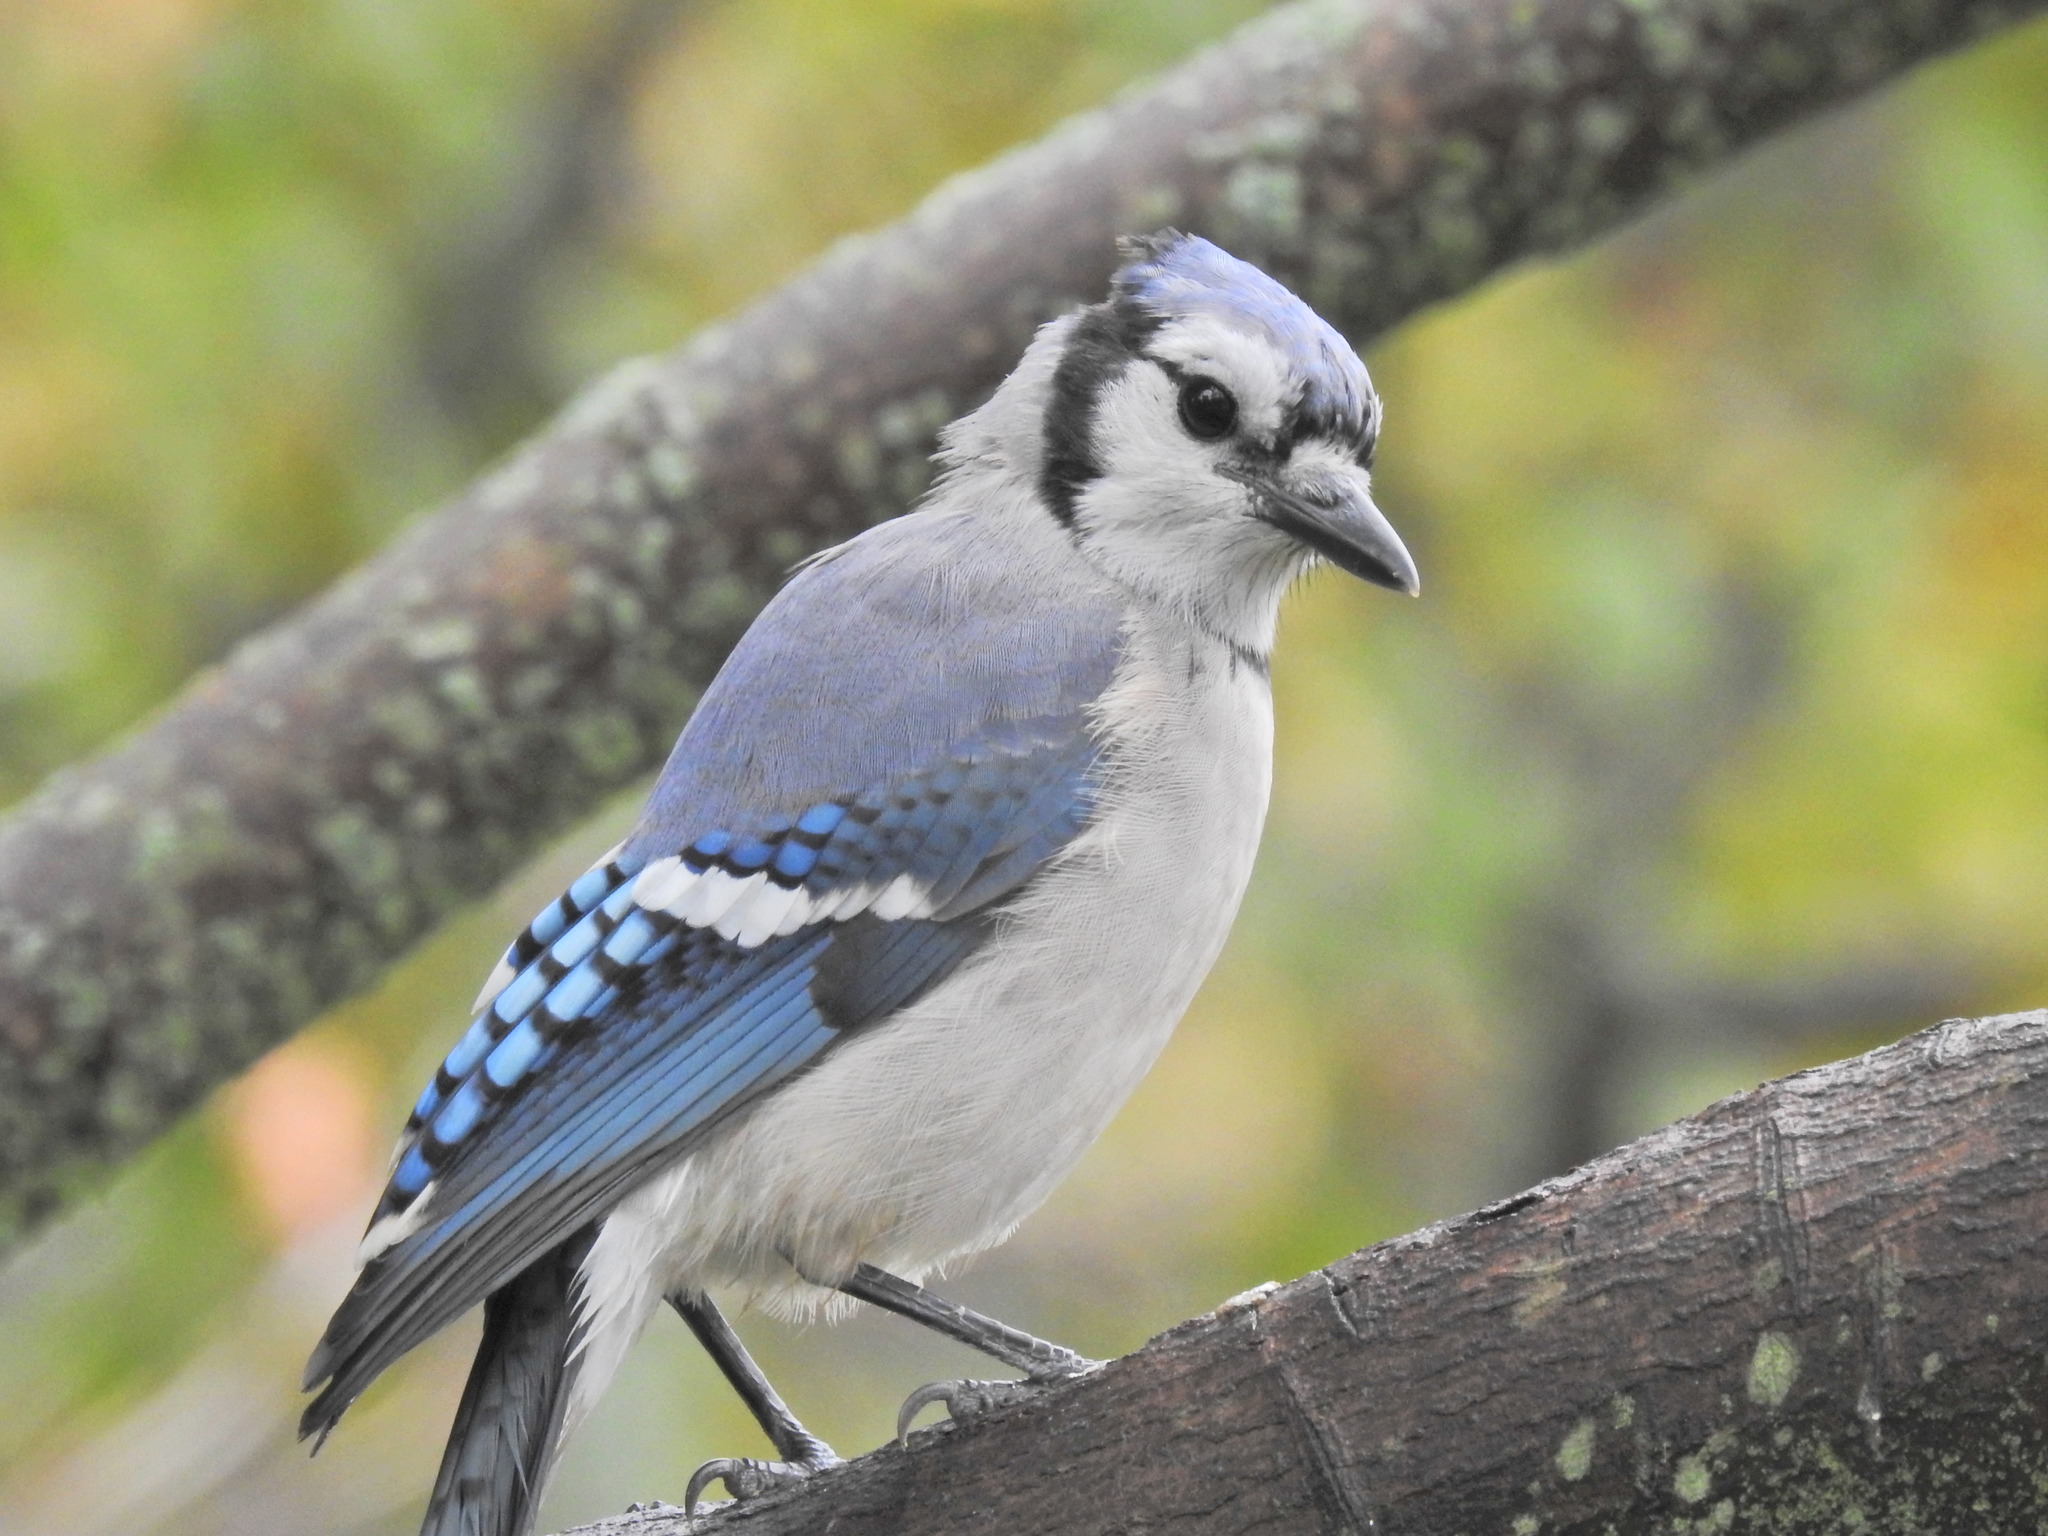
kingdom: Animalia
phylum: Chordata
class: Aves
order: Passeriformes
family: Corvidae
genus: Cyanocitta
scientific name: Cyanocitta cristata
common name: Blue jay
